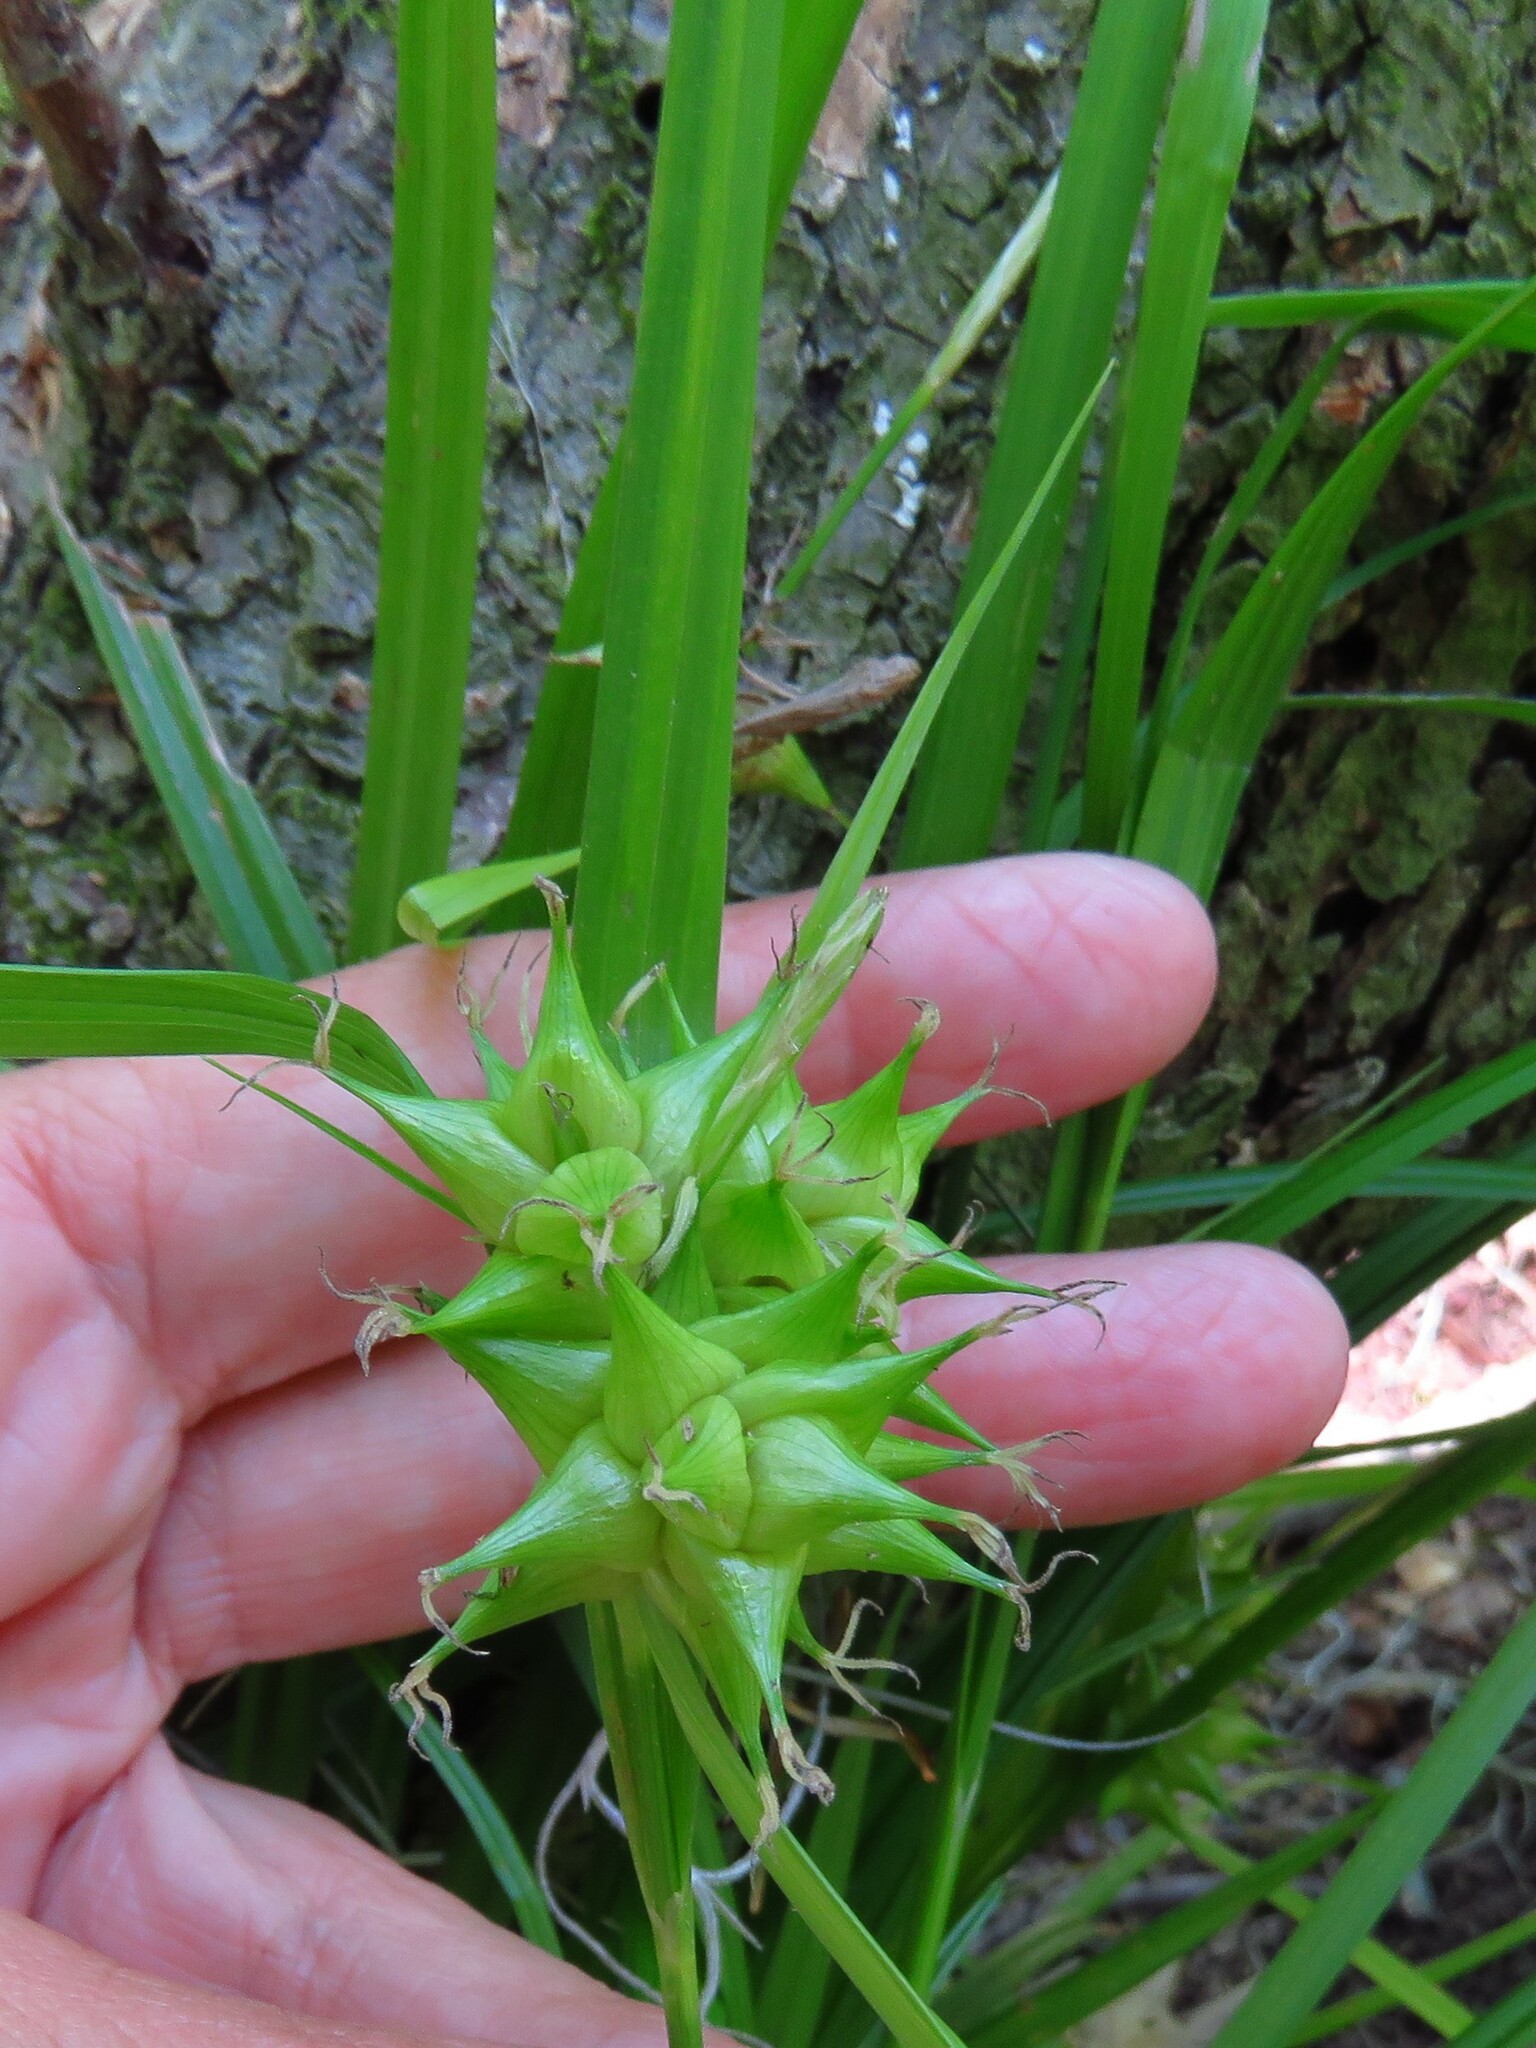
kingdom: Plantae
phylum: Tracheophyta
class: Liliopsida
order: Poales
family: Cyperaceae
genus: Carex
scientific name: Carex intumescens
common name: Greater bladder sedge
